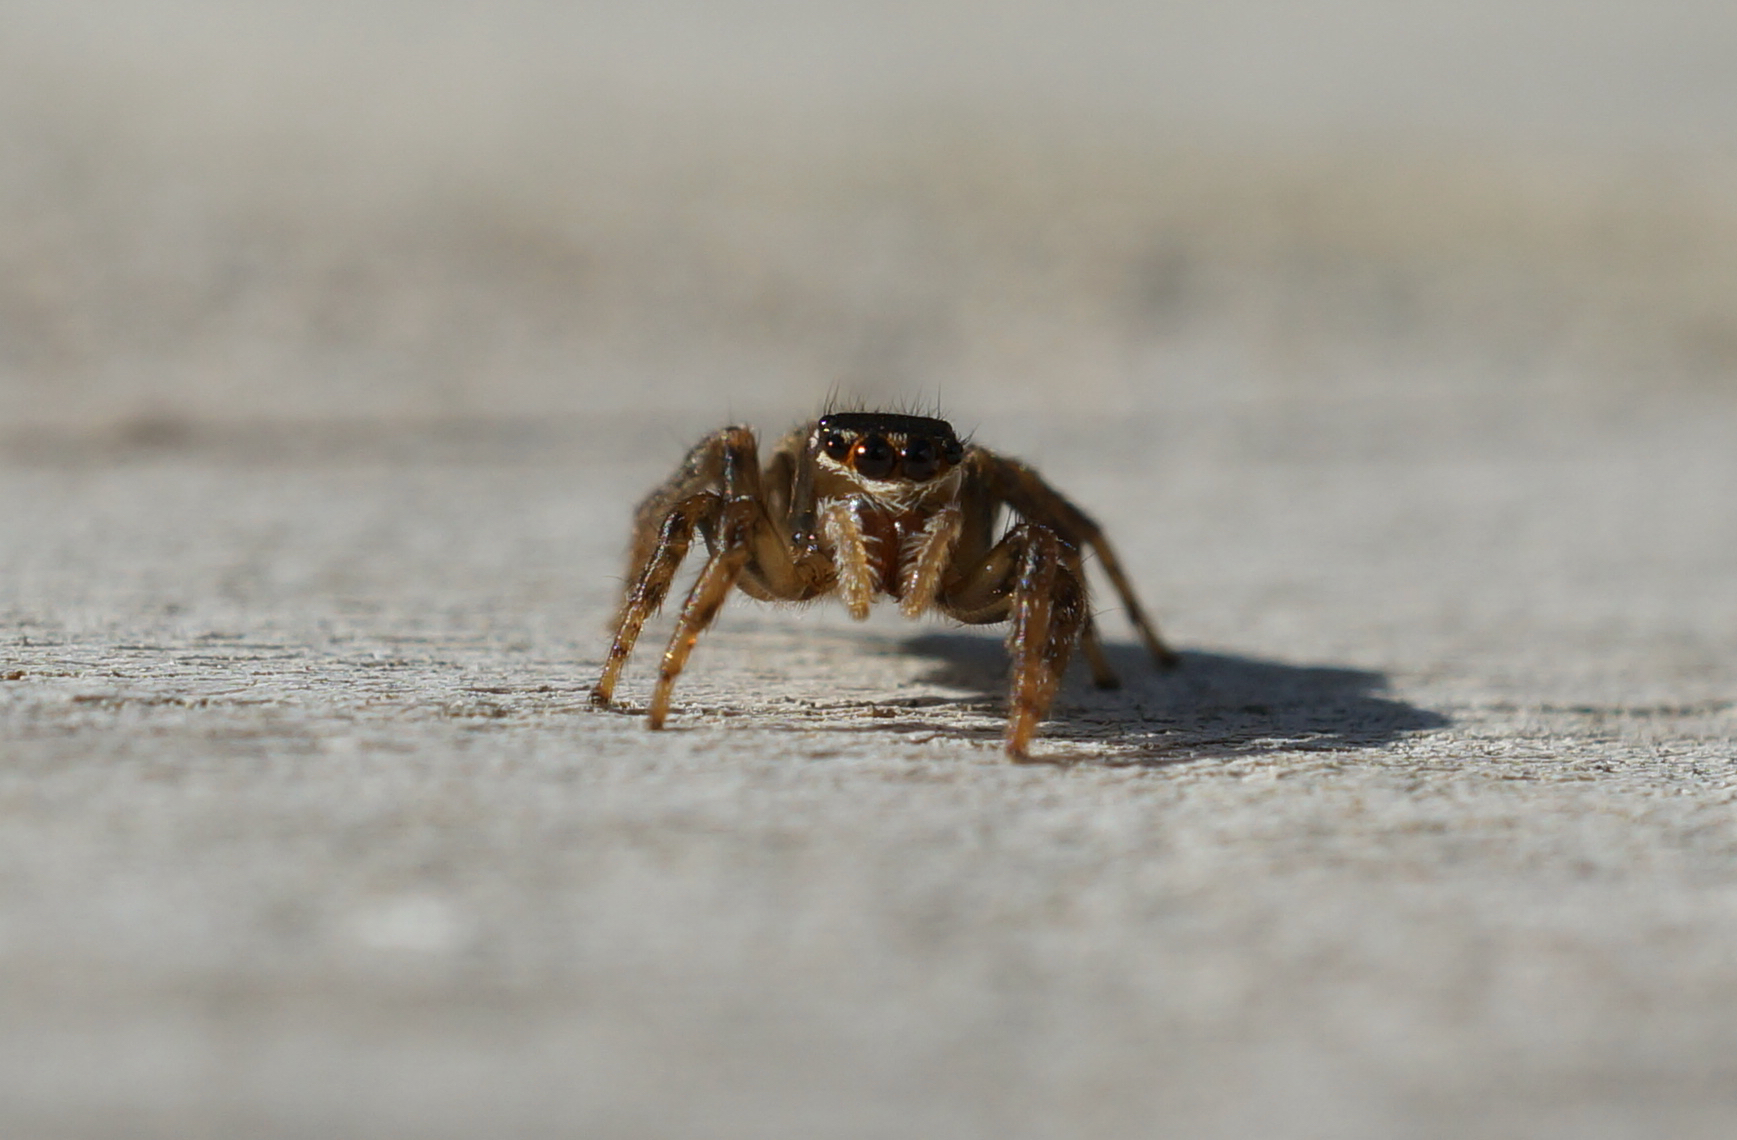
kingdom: Animalia
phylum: Arthropoda
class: Arachnida
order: Araneae
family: Salticidae
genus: Maratus
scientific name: Maratus griseus
